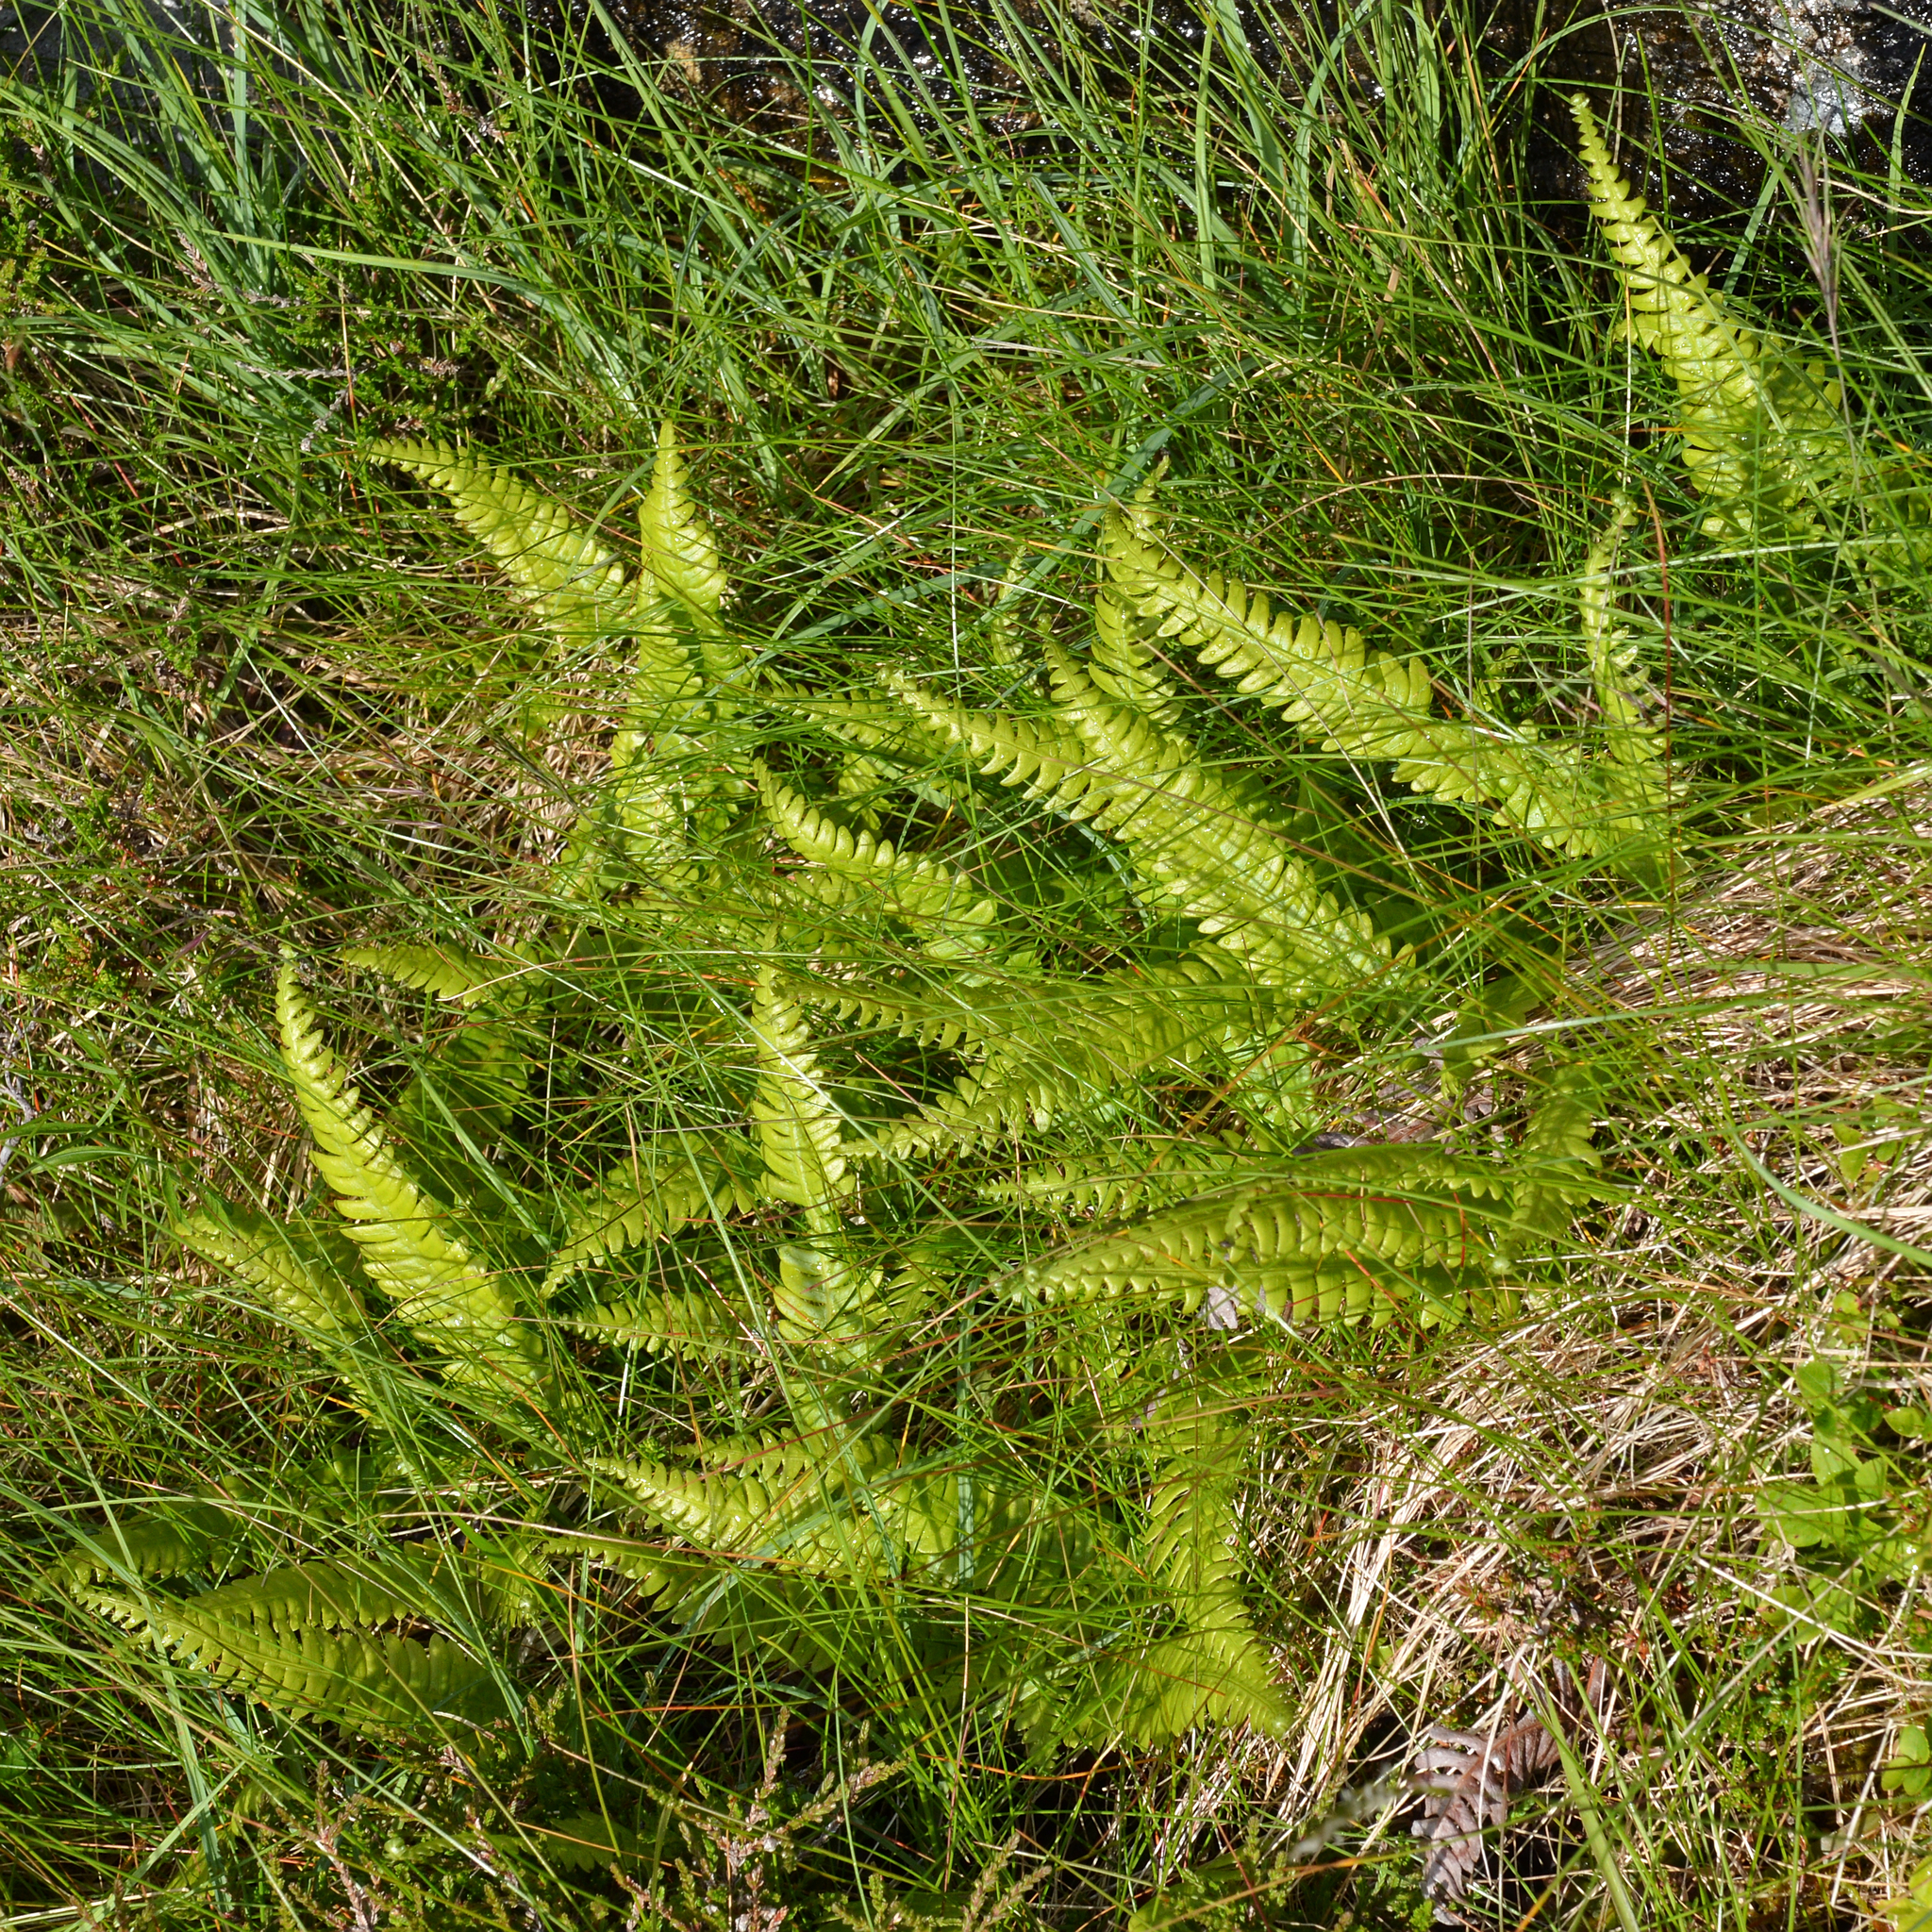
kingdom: Plantae
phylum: Tracheophyta
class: Polypodiopsida
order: Polypodiales
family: Blechnaceae
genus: Struthiopteris
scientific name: Struthiopteris spicant
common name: Deer fern
